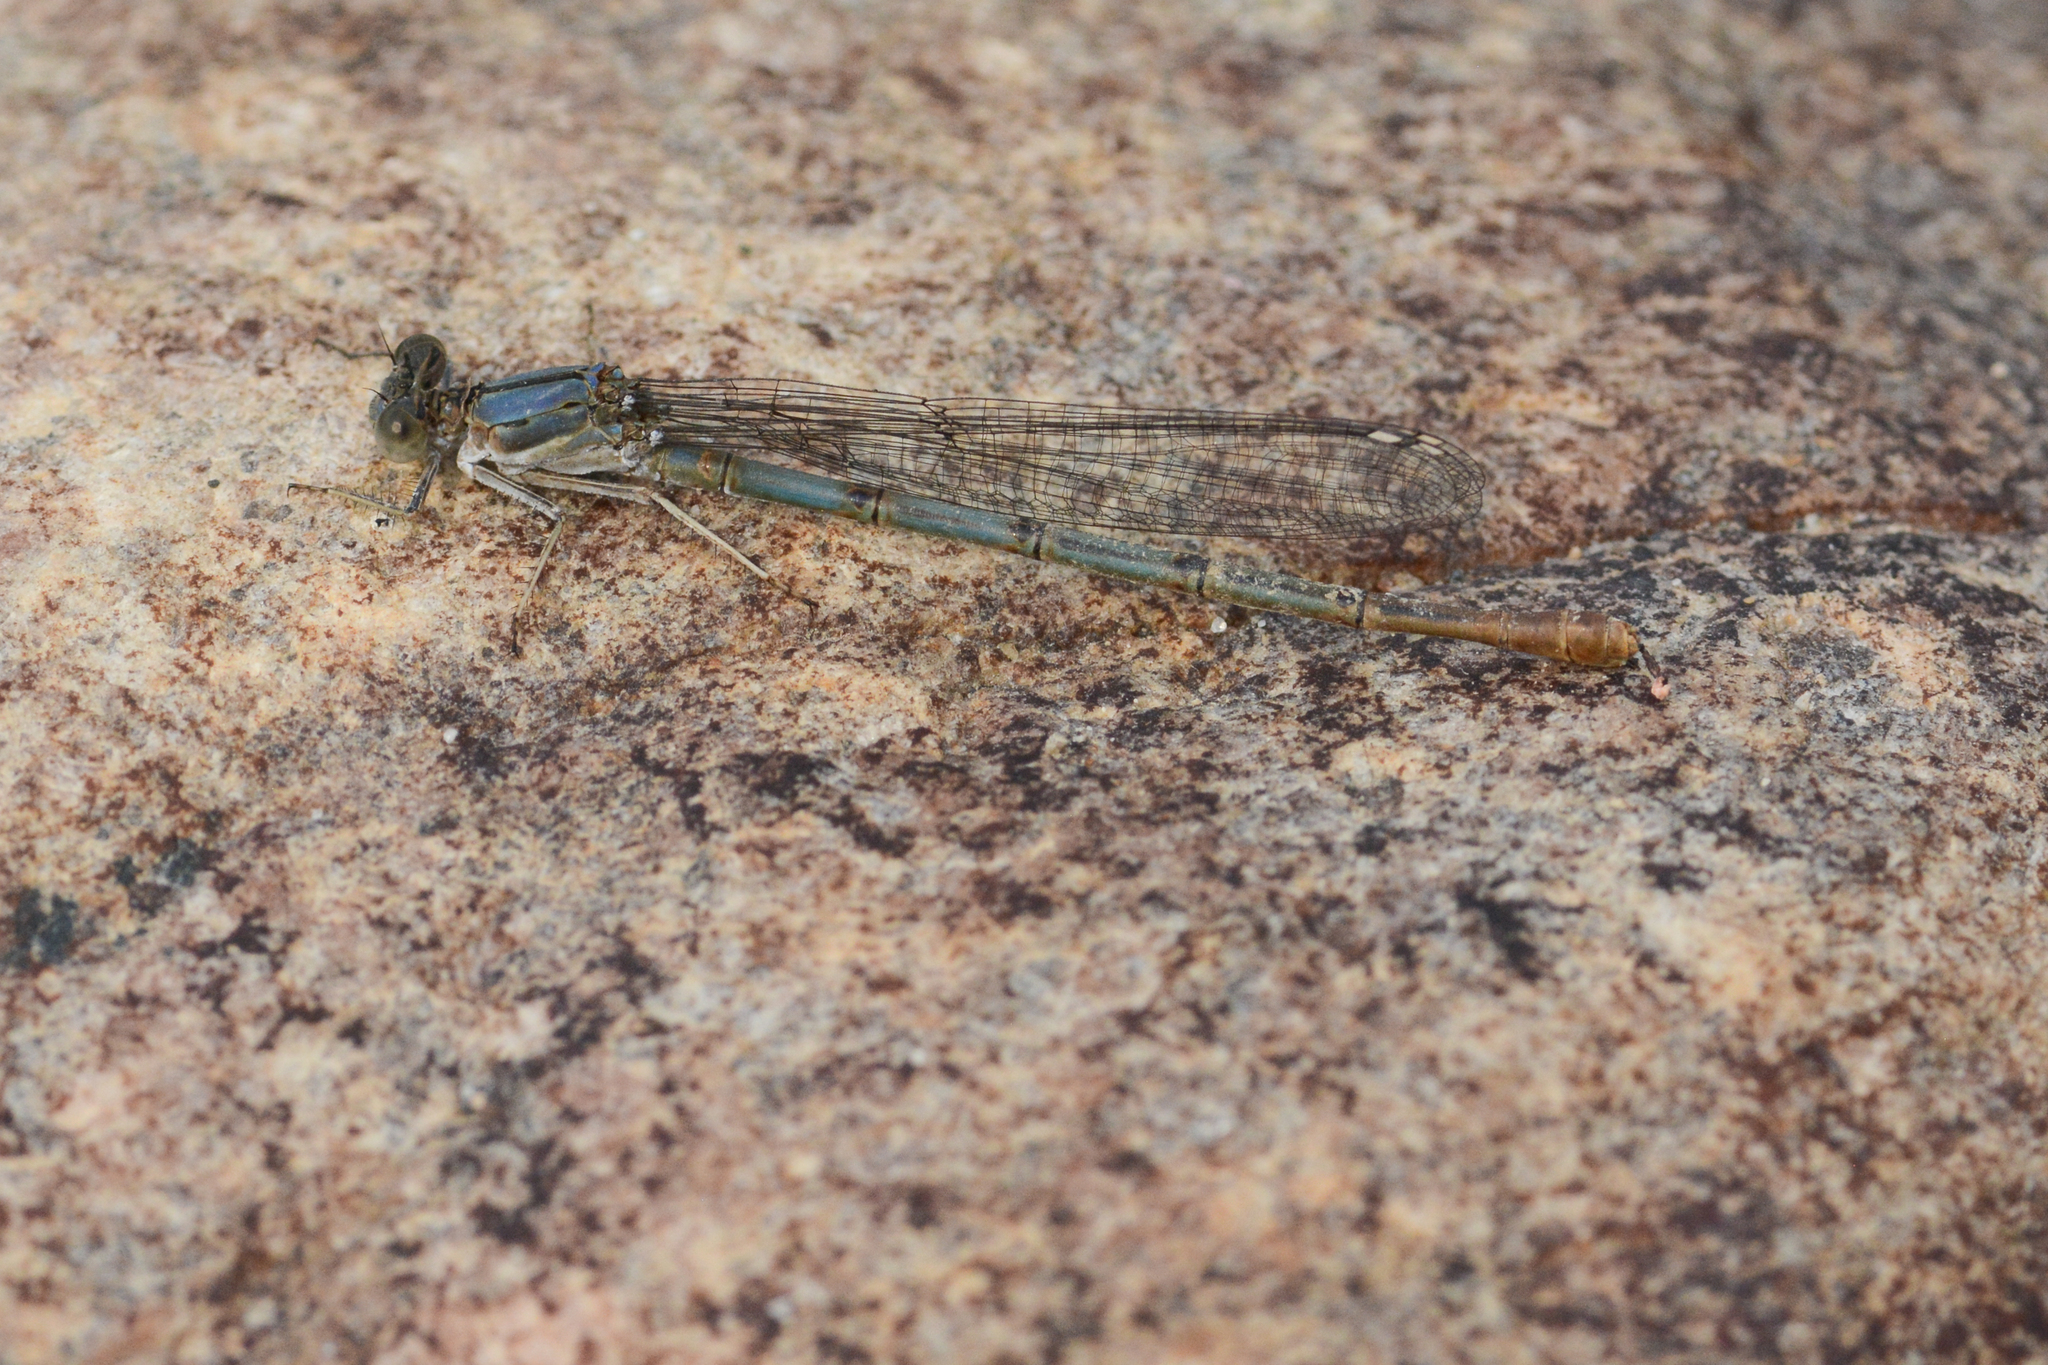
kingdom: Animalia
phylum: Arthropoda
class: Insecta
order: Odonata
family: Coenagrionidae
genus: Argia
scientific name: Argia emma
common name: Emma's dancer
